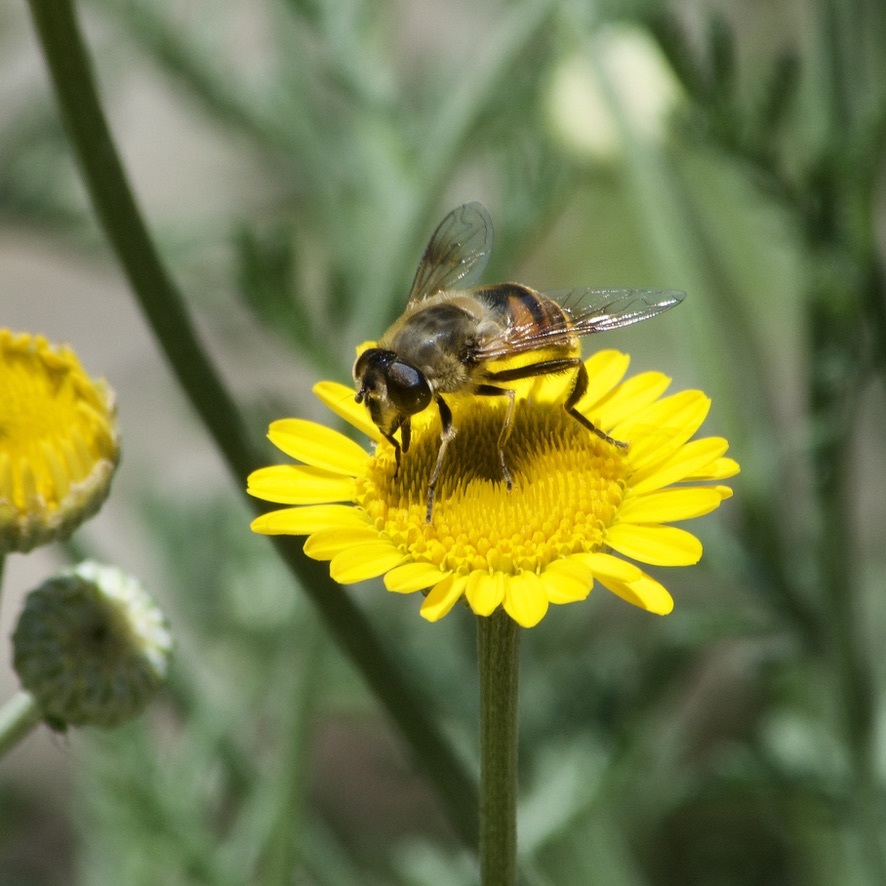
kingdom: Animalia
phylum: Arthropoda
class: Insecta
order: Diptera
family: Syrphidae
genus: Eristalis
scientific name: Eristalis tenax
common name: Drone fly
